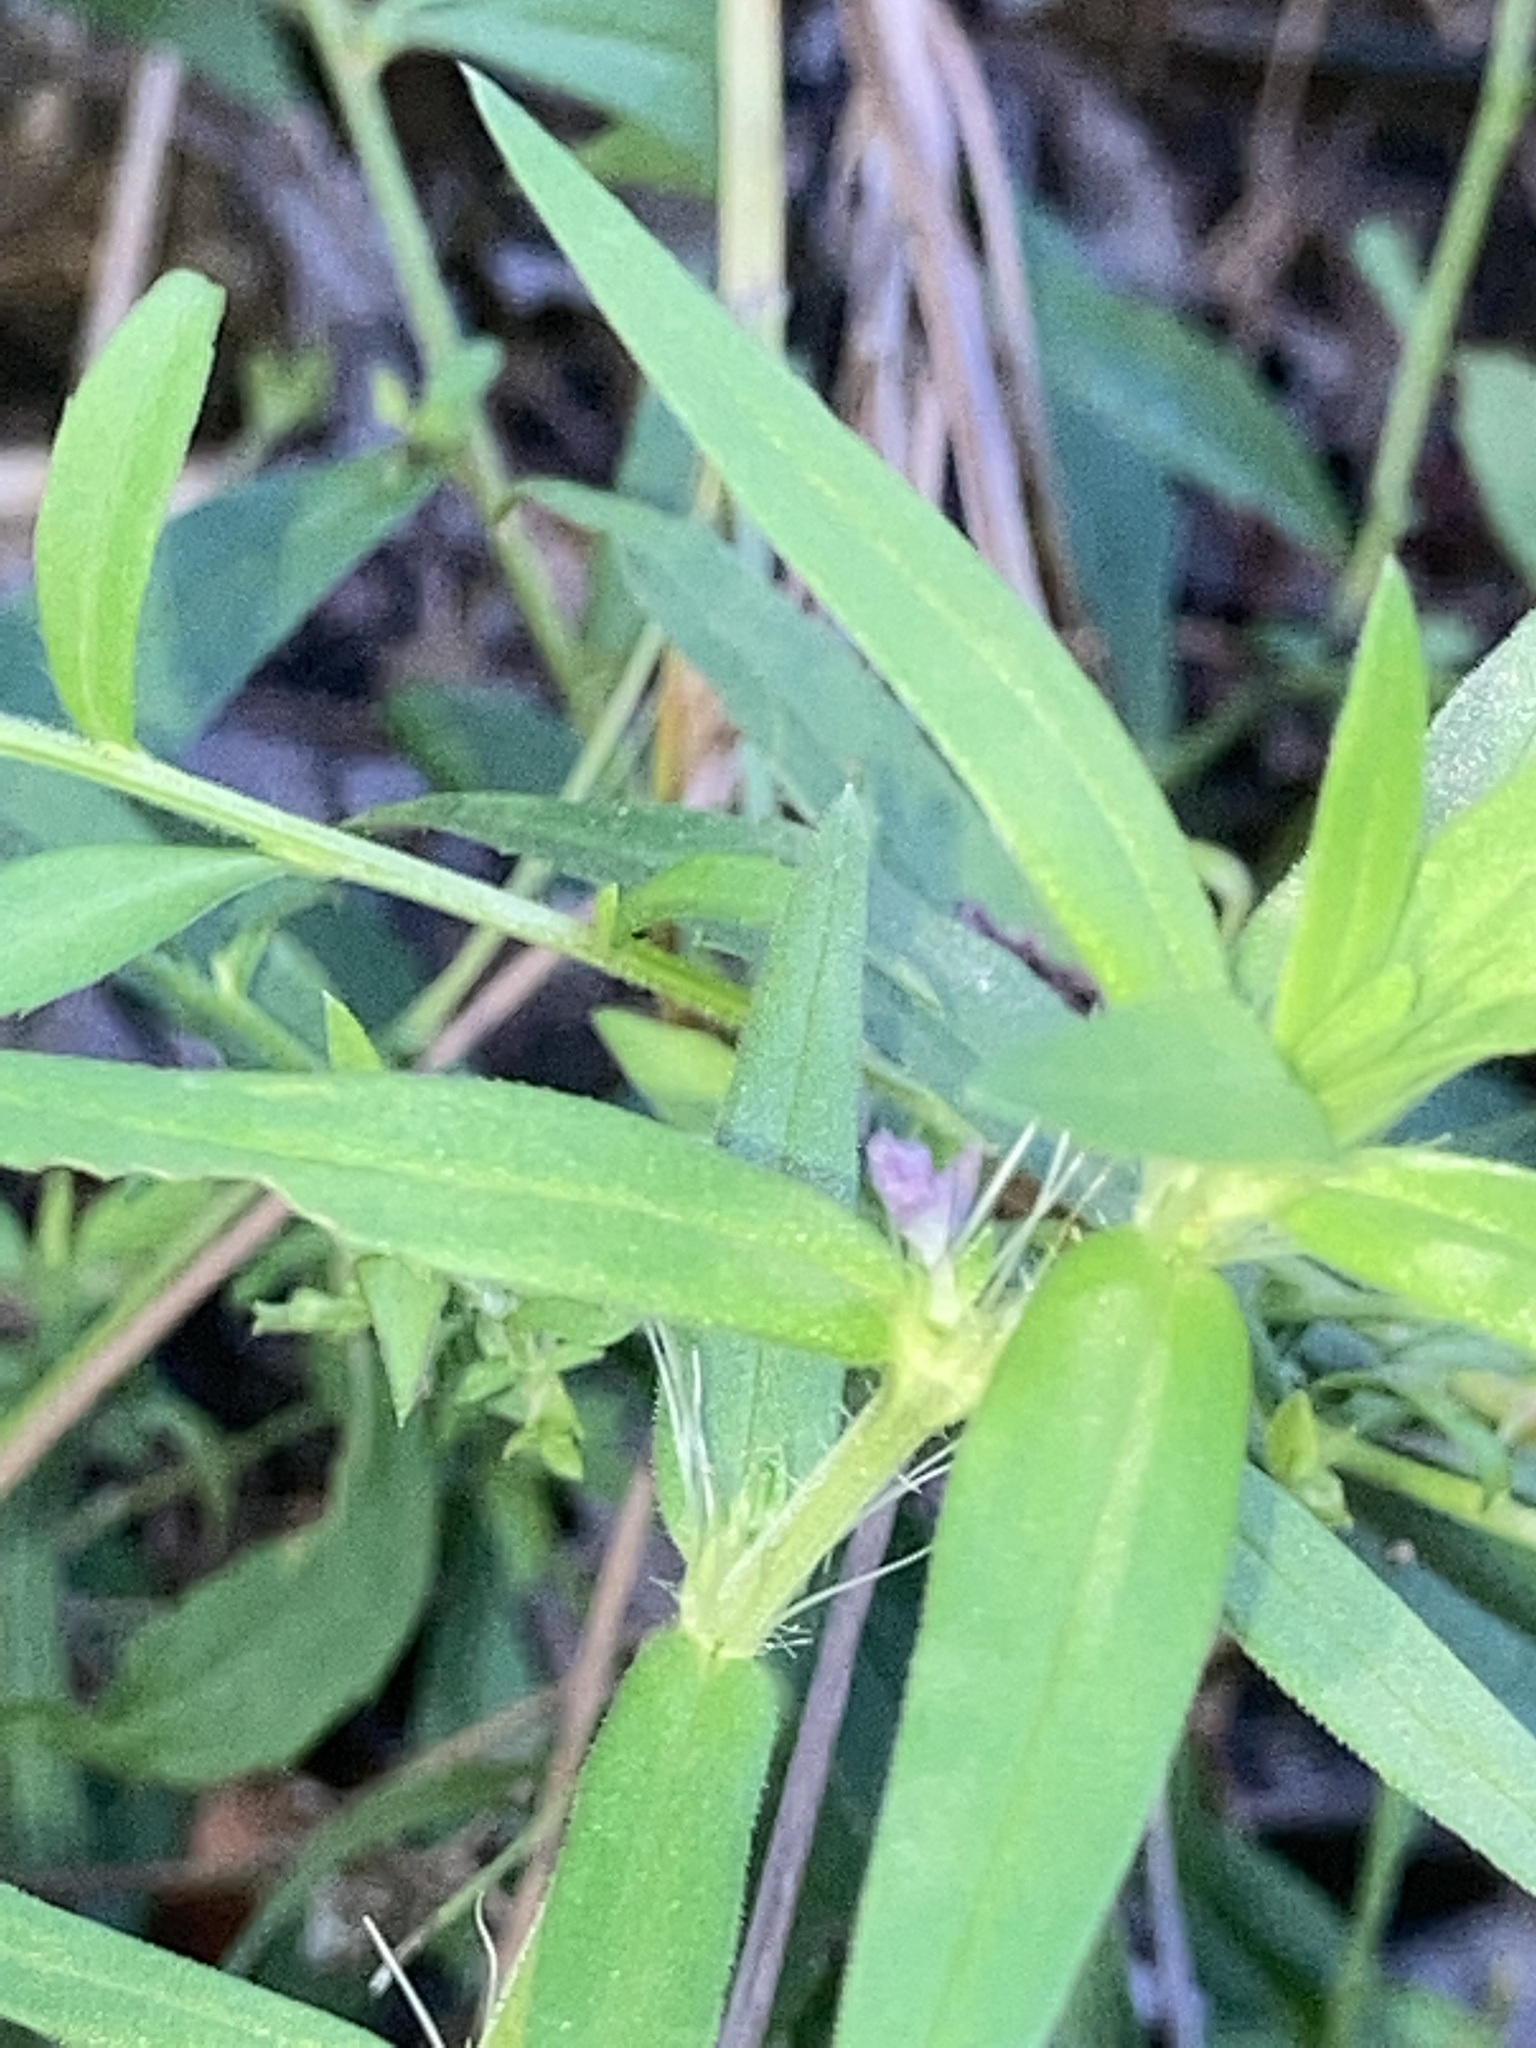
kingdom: Plantae
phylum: Tracheophyta
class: Magnoliopsida
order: Gentianales
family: Rubiaceae
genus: Hexasepalum
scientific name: Hexasepalum teres
